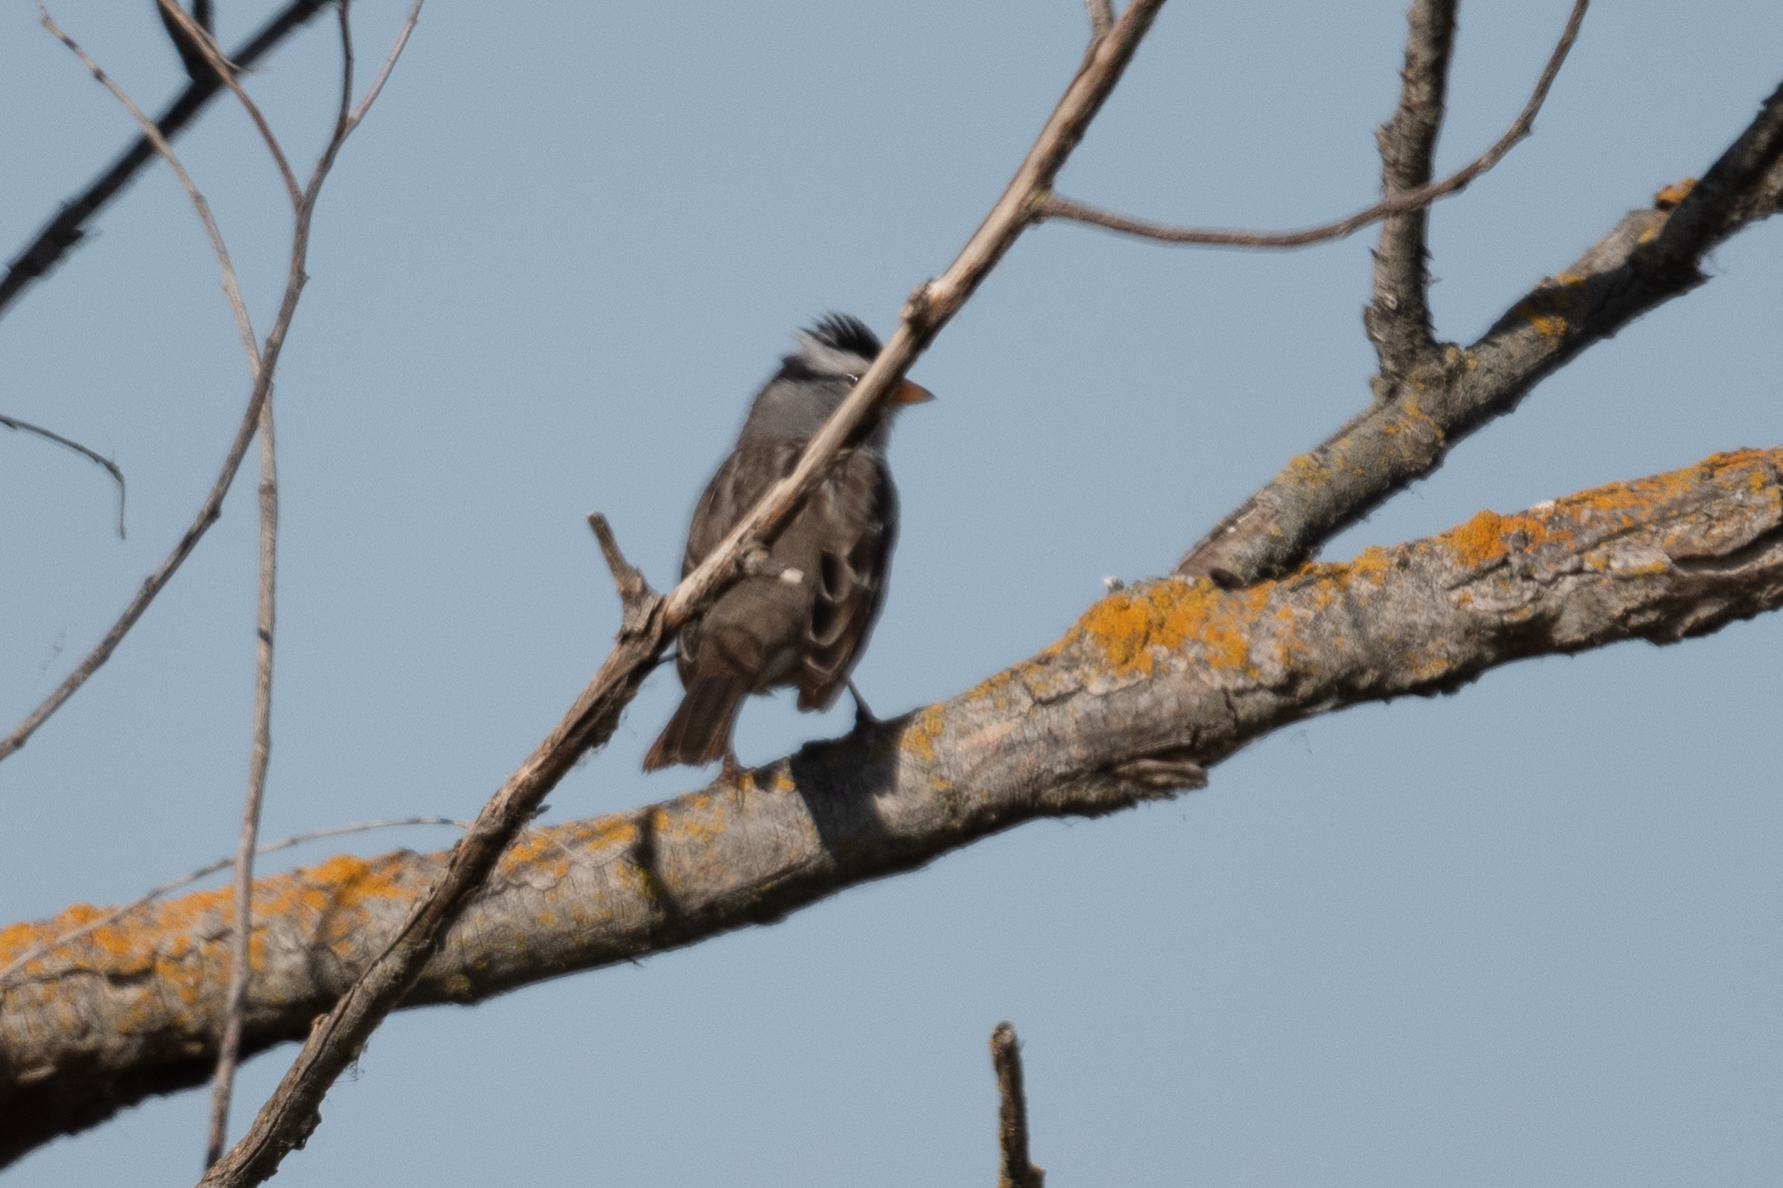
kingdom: Animalia
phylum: Chordata
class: Aves
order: Passeriformes
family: Passerellidae
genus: Zonotrichia
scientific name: Zonotrichia leucophrys
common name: White-crowned sparrow
